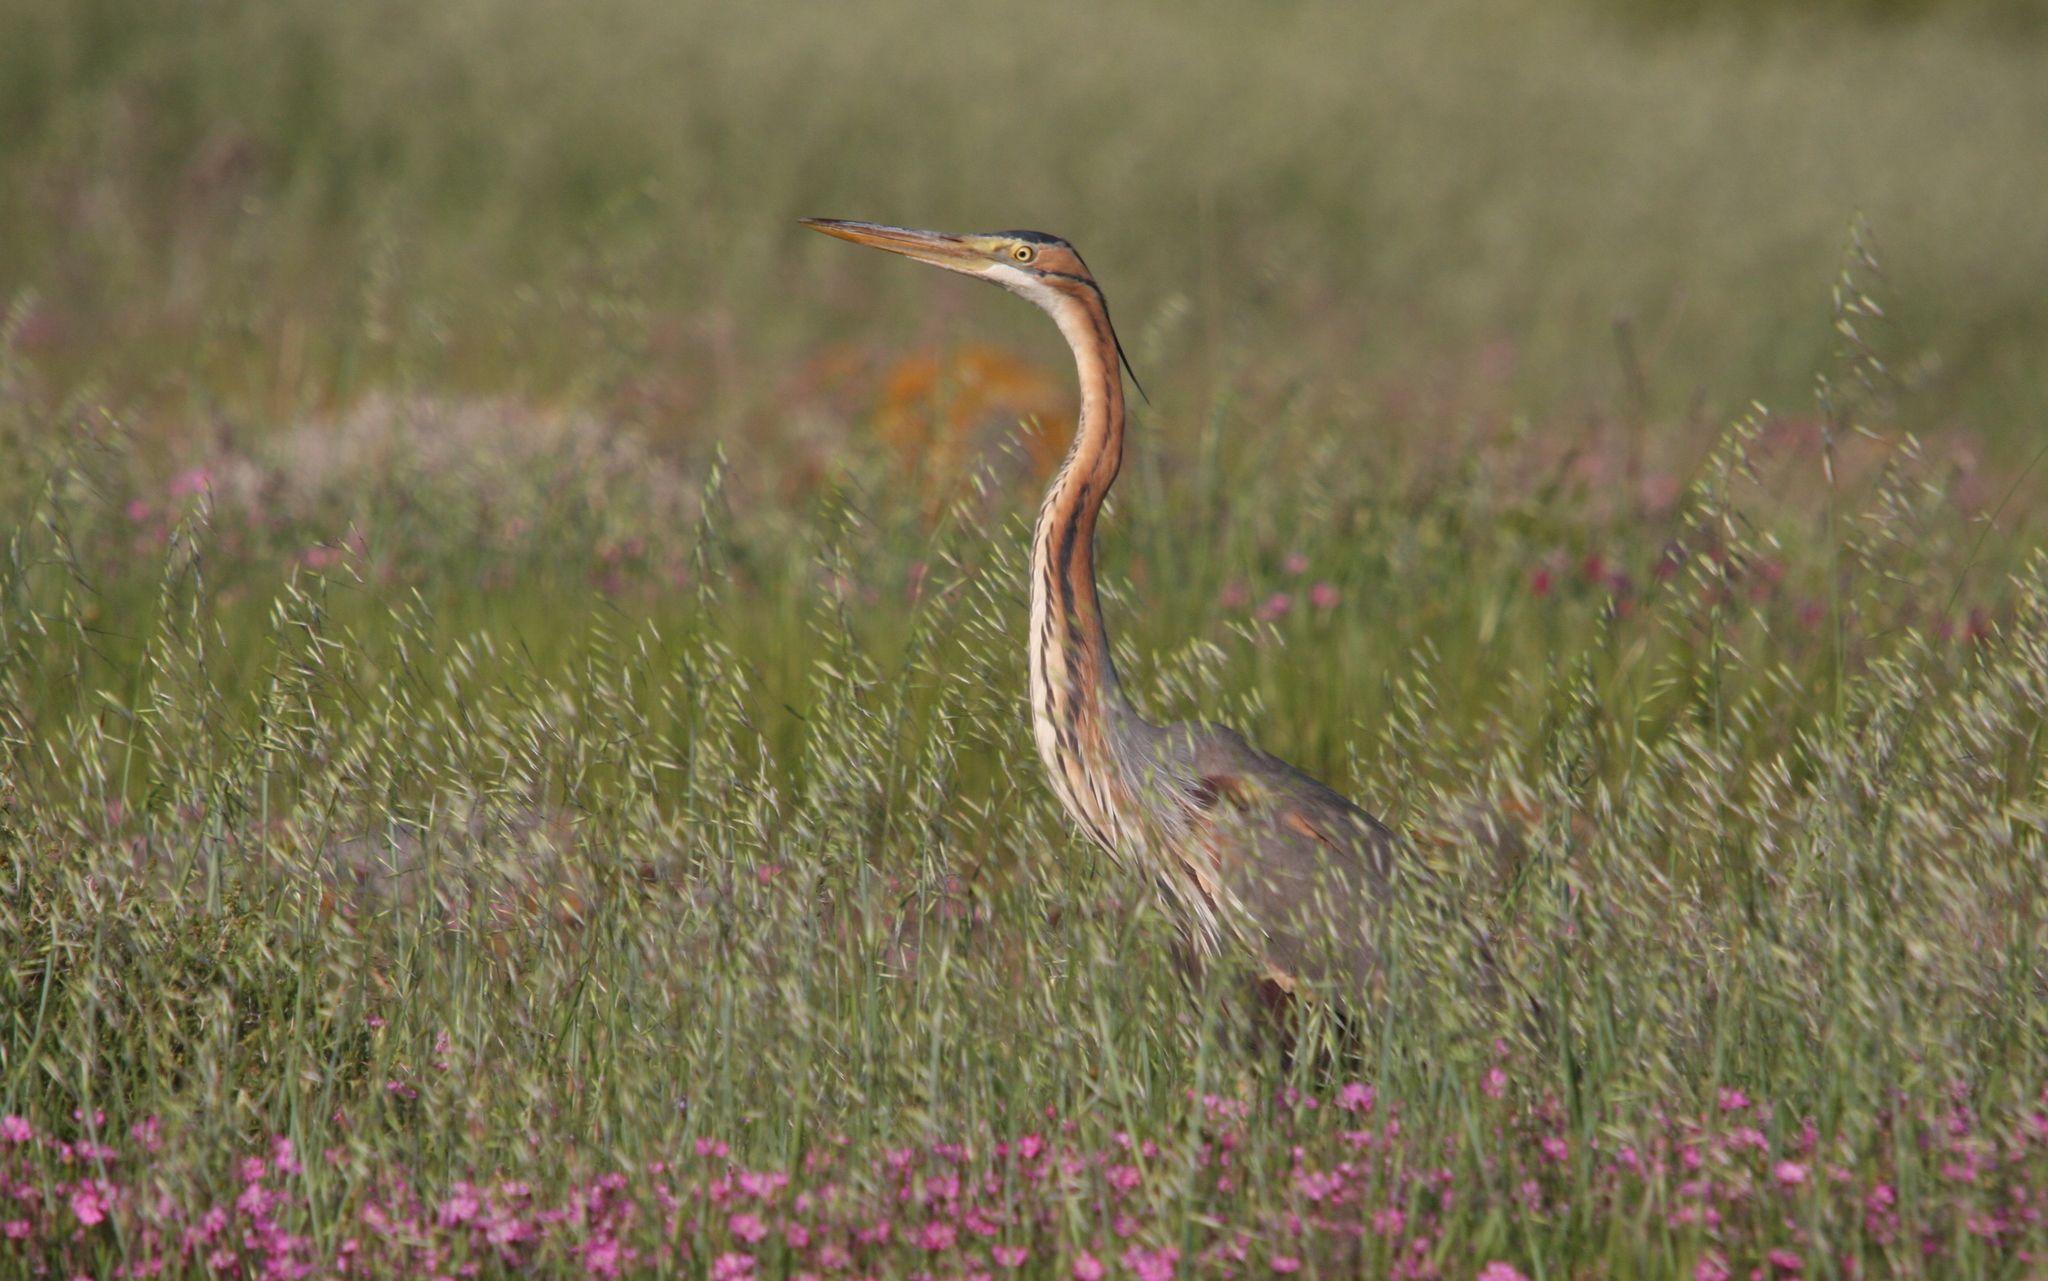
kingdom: Animalia
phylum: Chordata
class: Aves
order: Pelecaniformes
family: Ardeidae
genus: Ardea
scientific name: Ardea purpurea
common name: Purple heron
